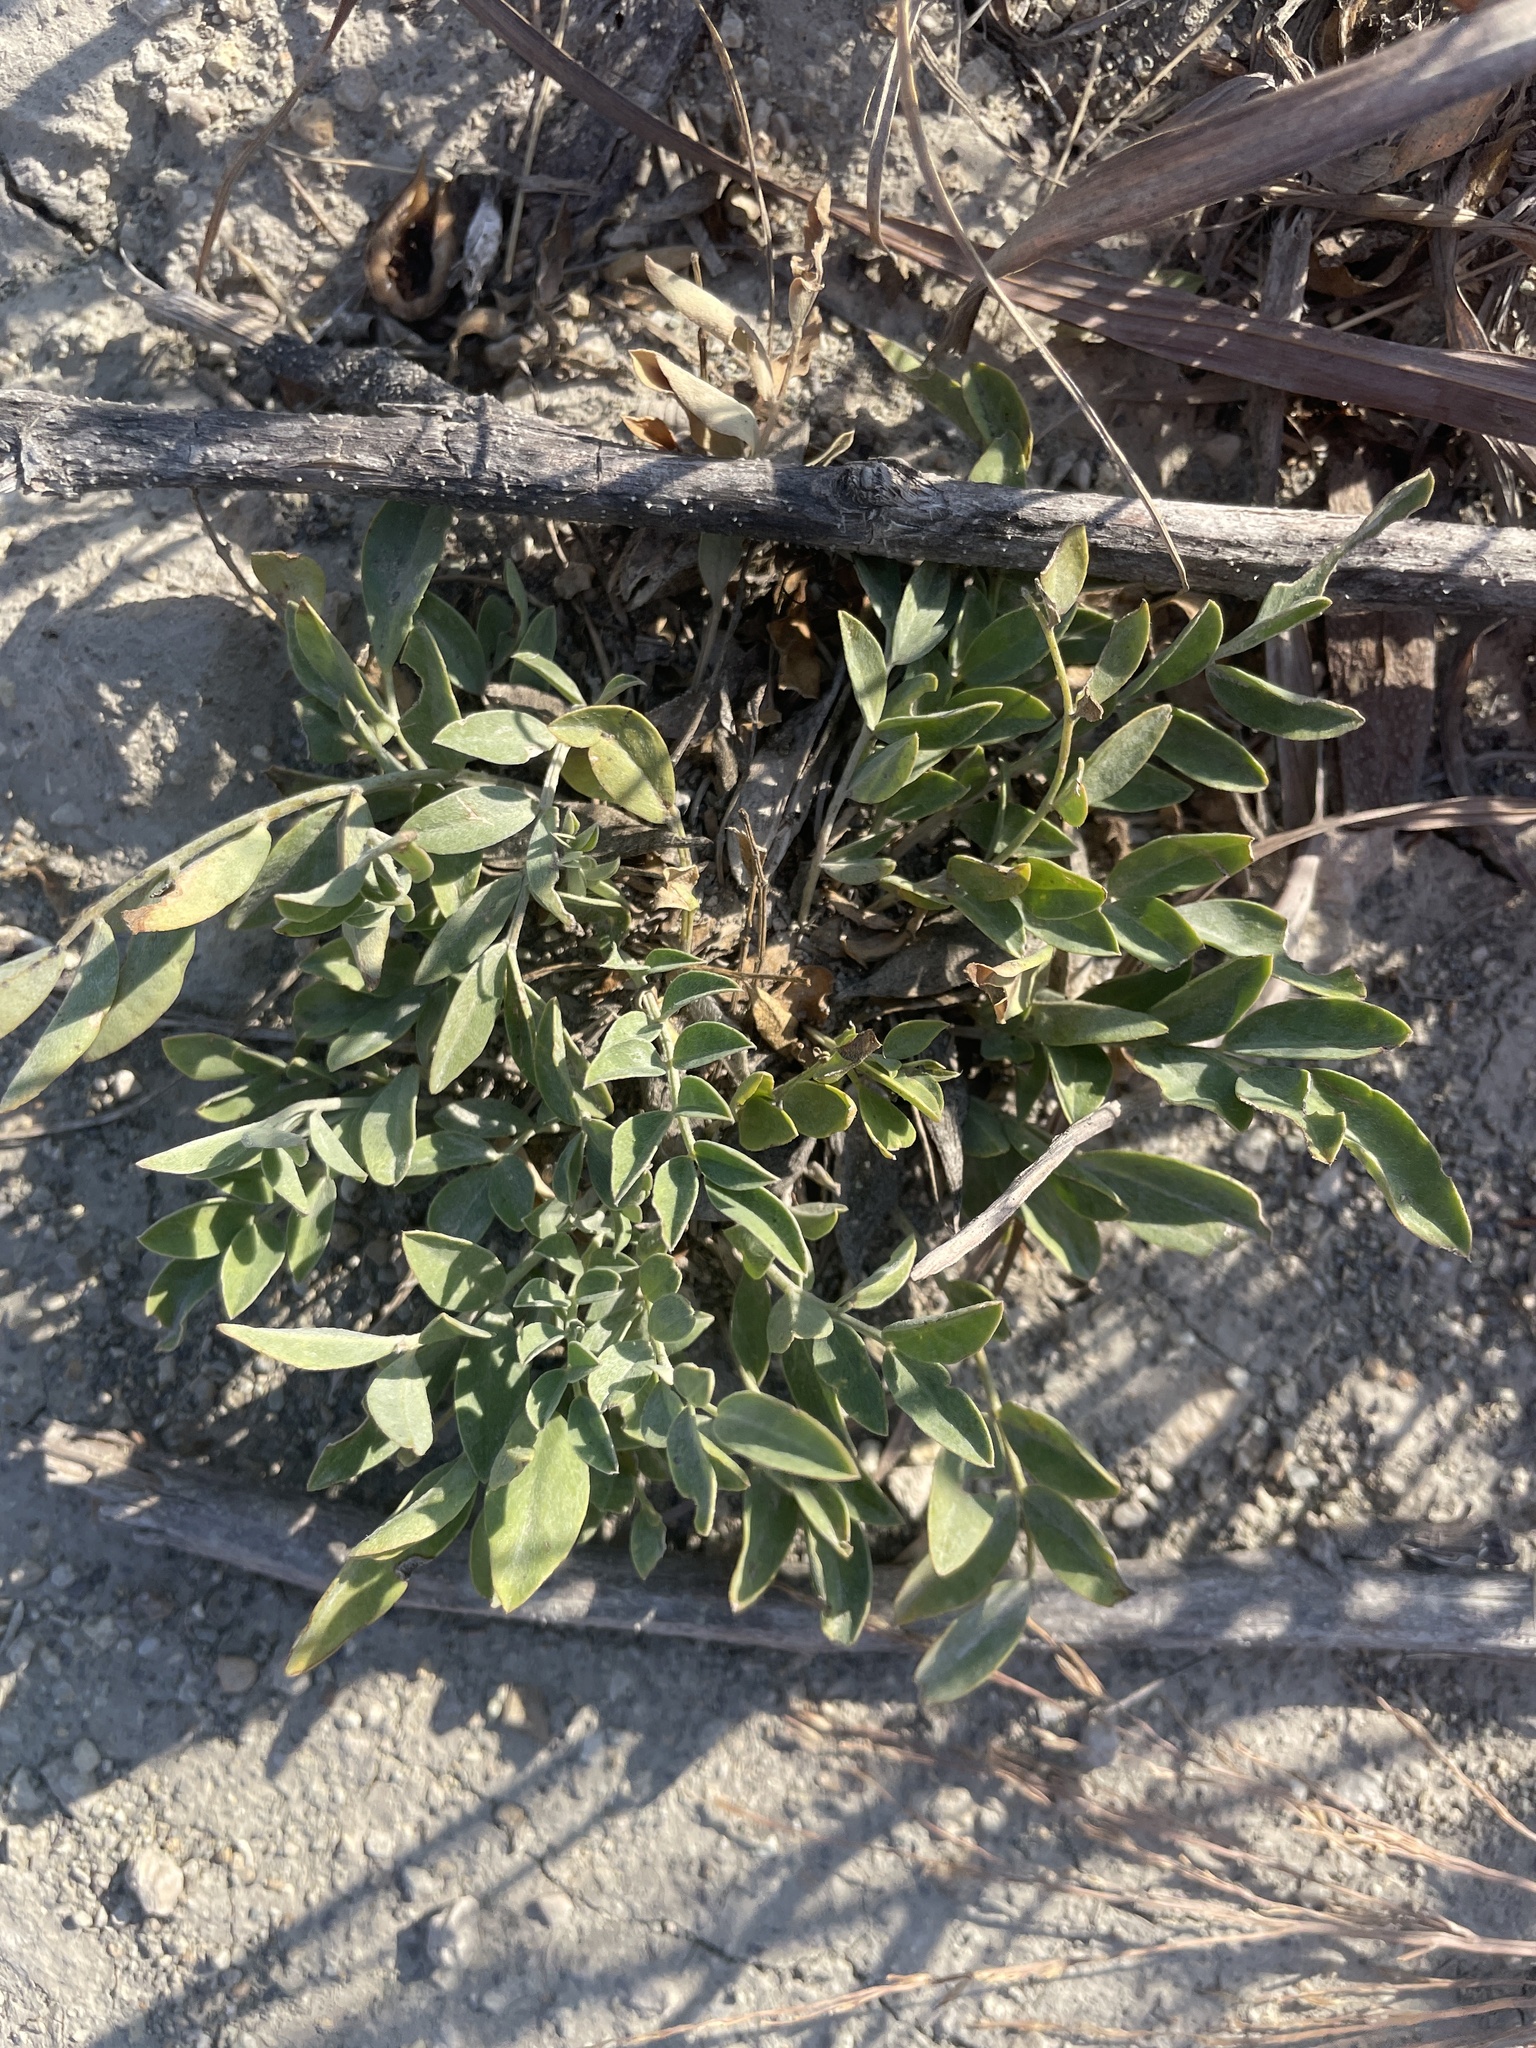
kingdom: Plantae
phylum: Tracheophyta
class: Magnoliopsida
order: Fabales
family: Fabaceae
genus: Astragalus
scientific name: Astragalus lotiflorus
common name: Lotus milk-vetch
